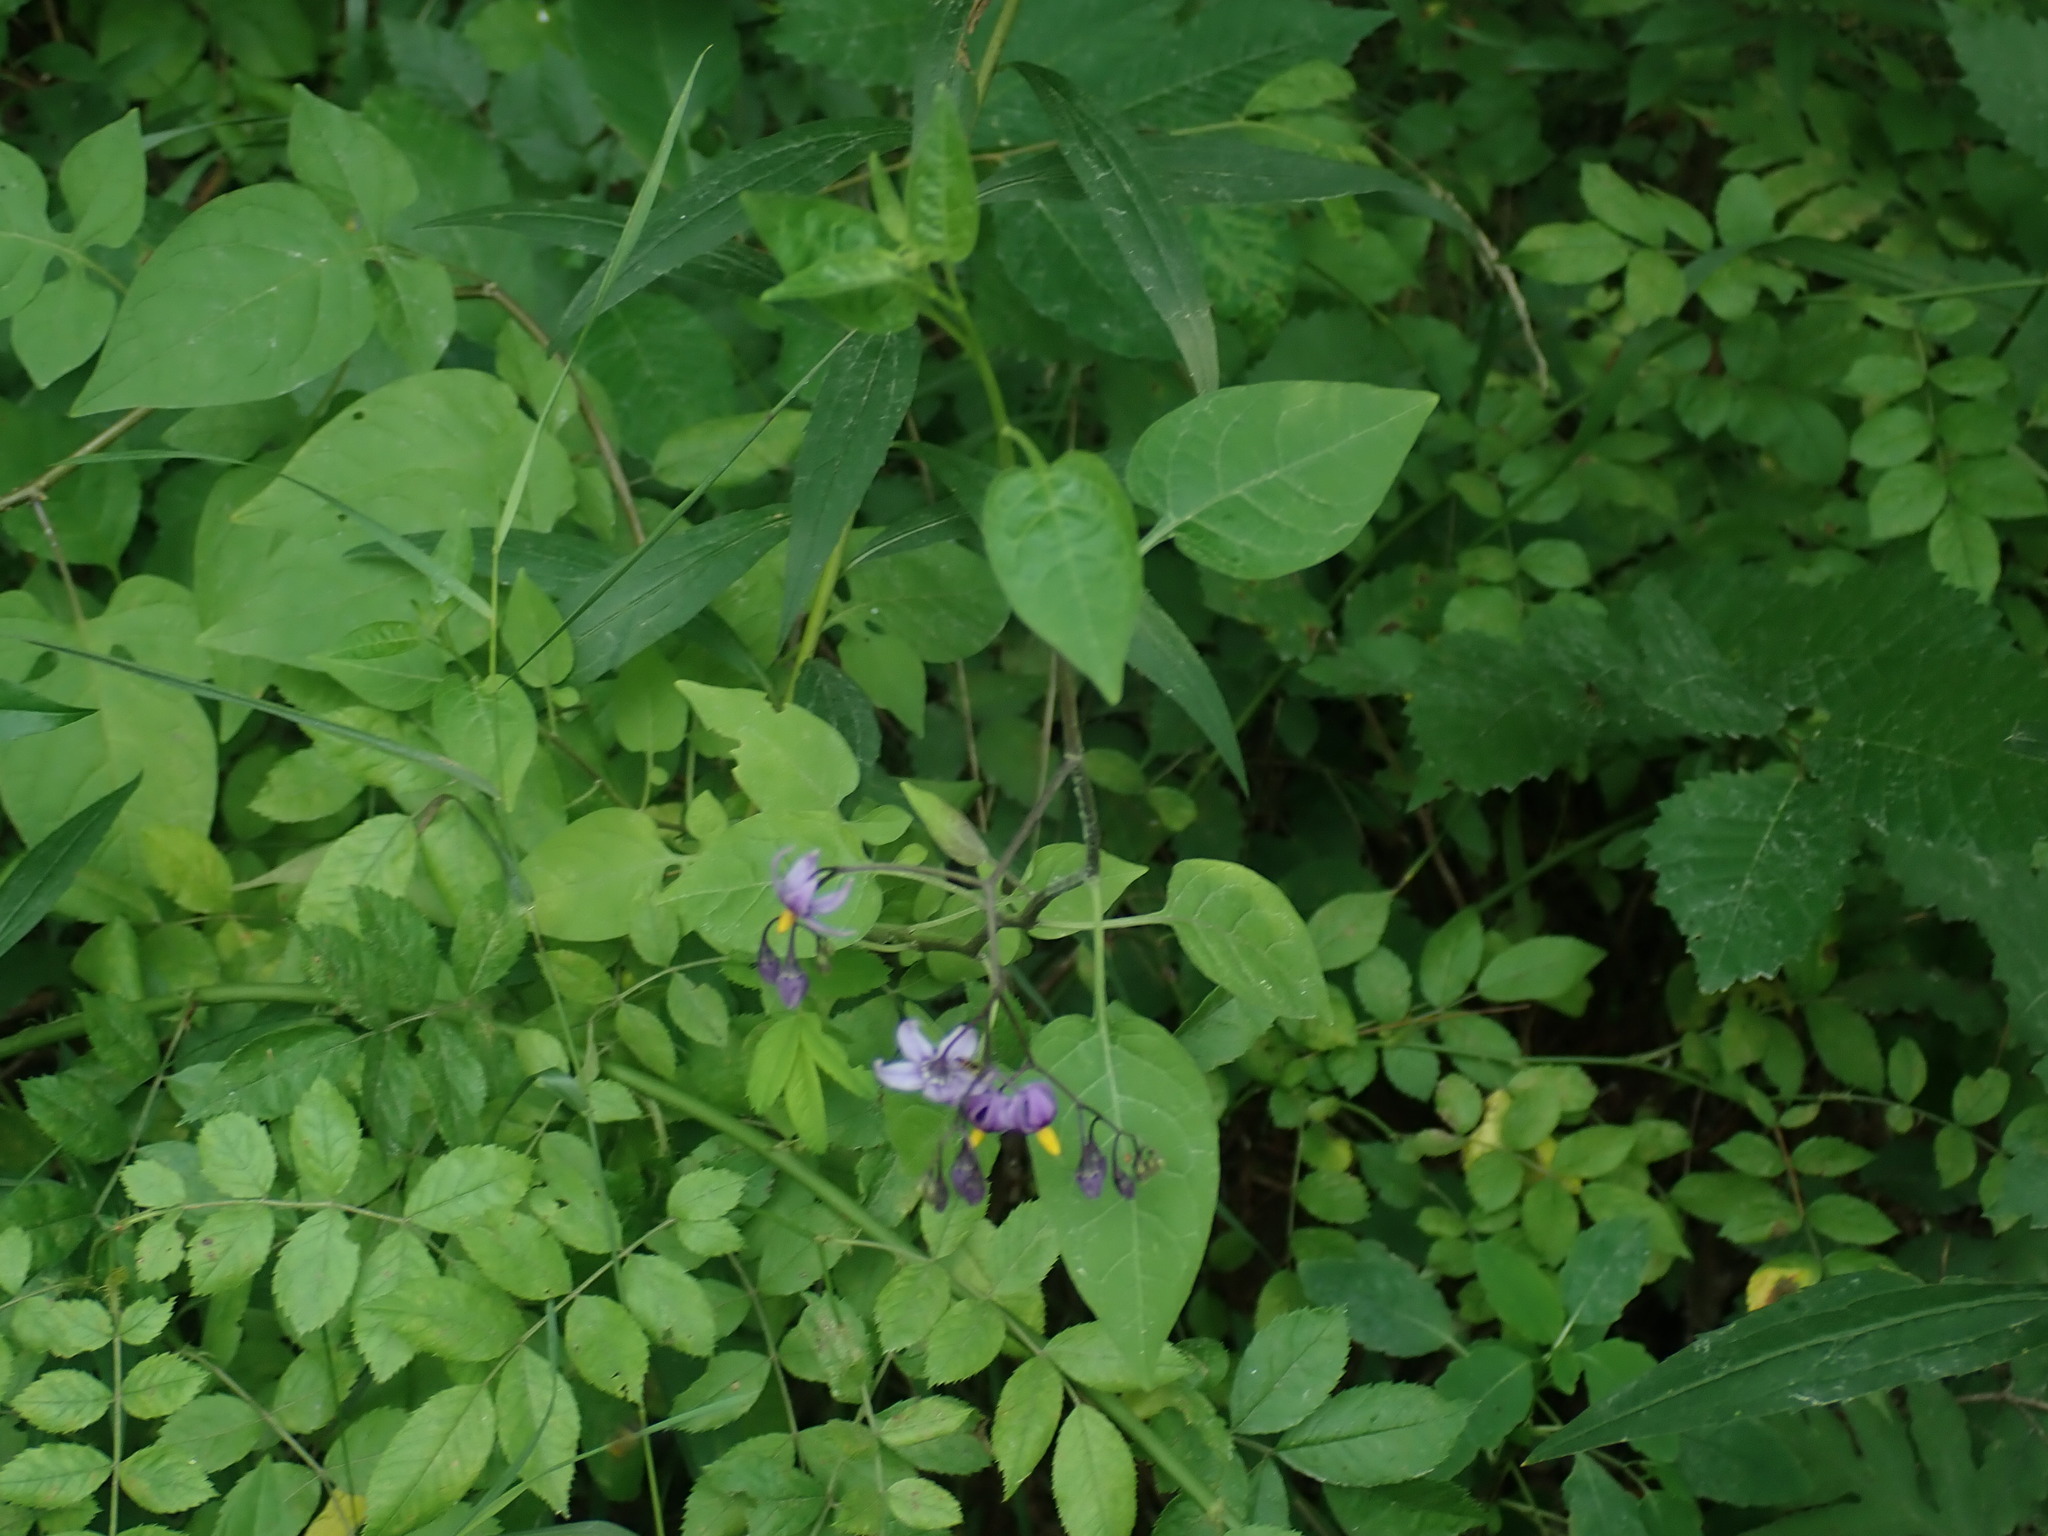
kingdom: Plantae
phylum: Tracheophyta
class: Magnoliopsida
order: Solanales
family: Solanaceae
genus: Solanum
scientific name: Solanum dulcamara
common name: Climbing nightshade
